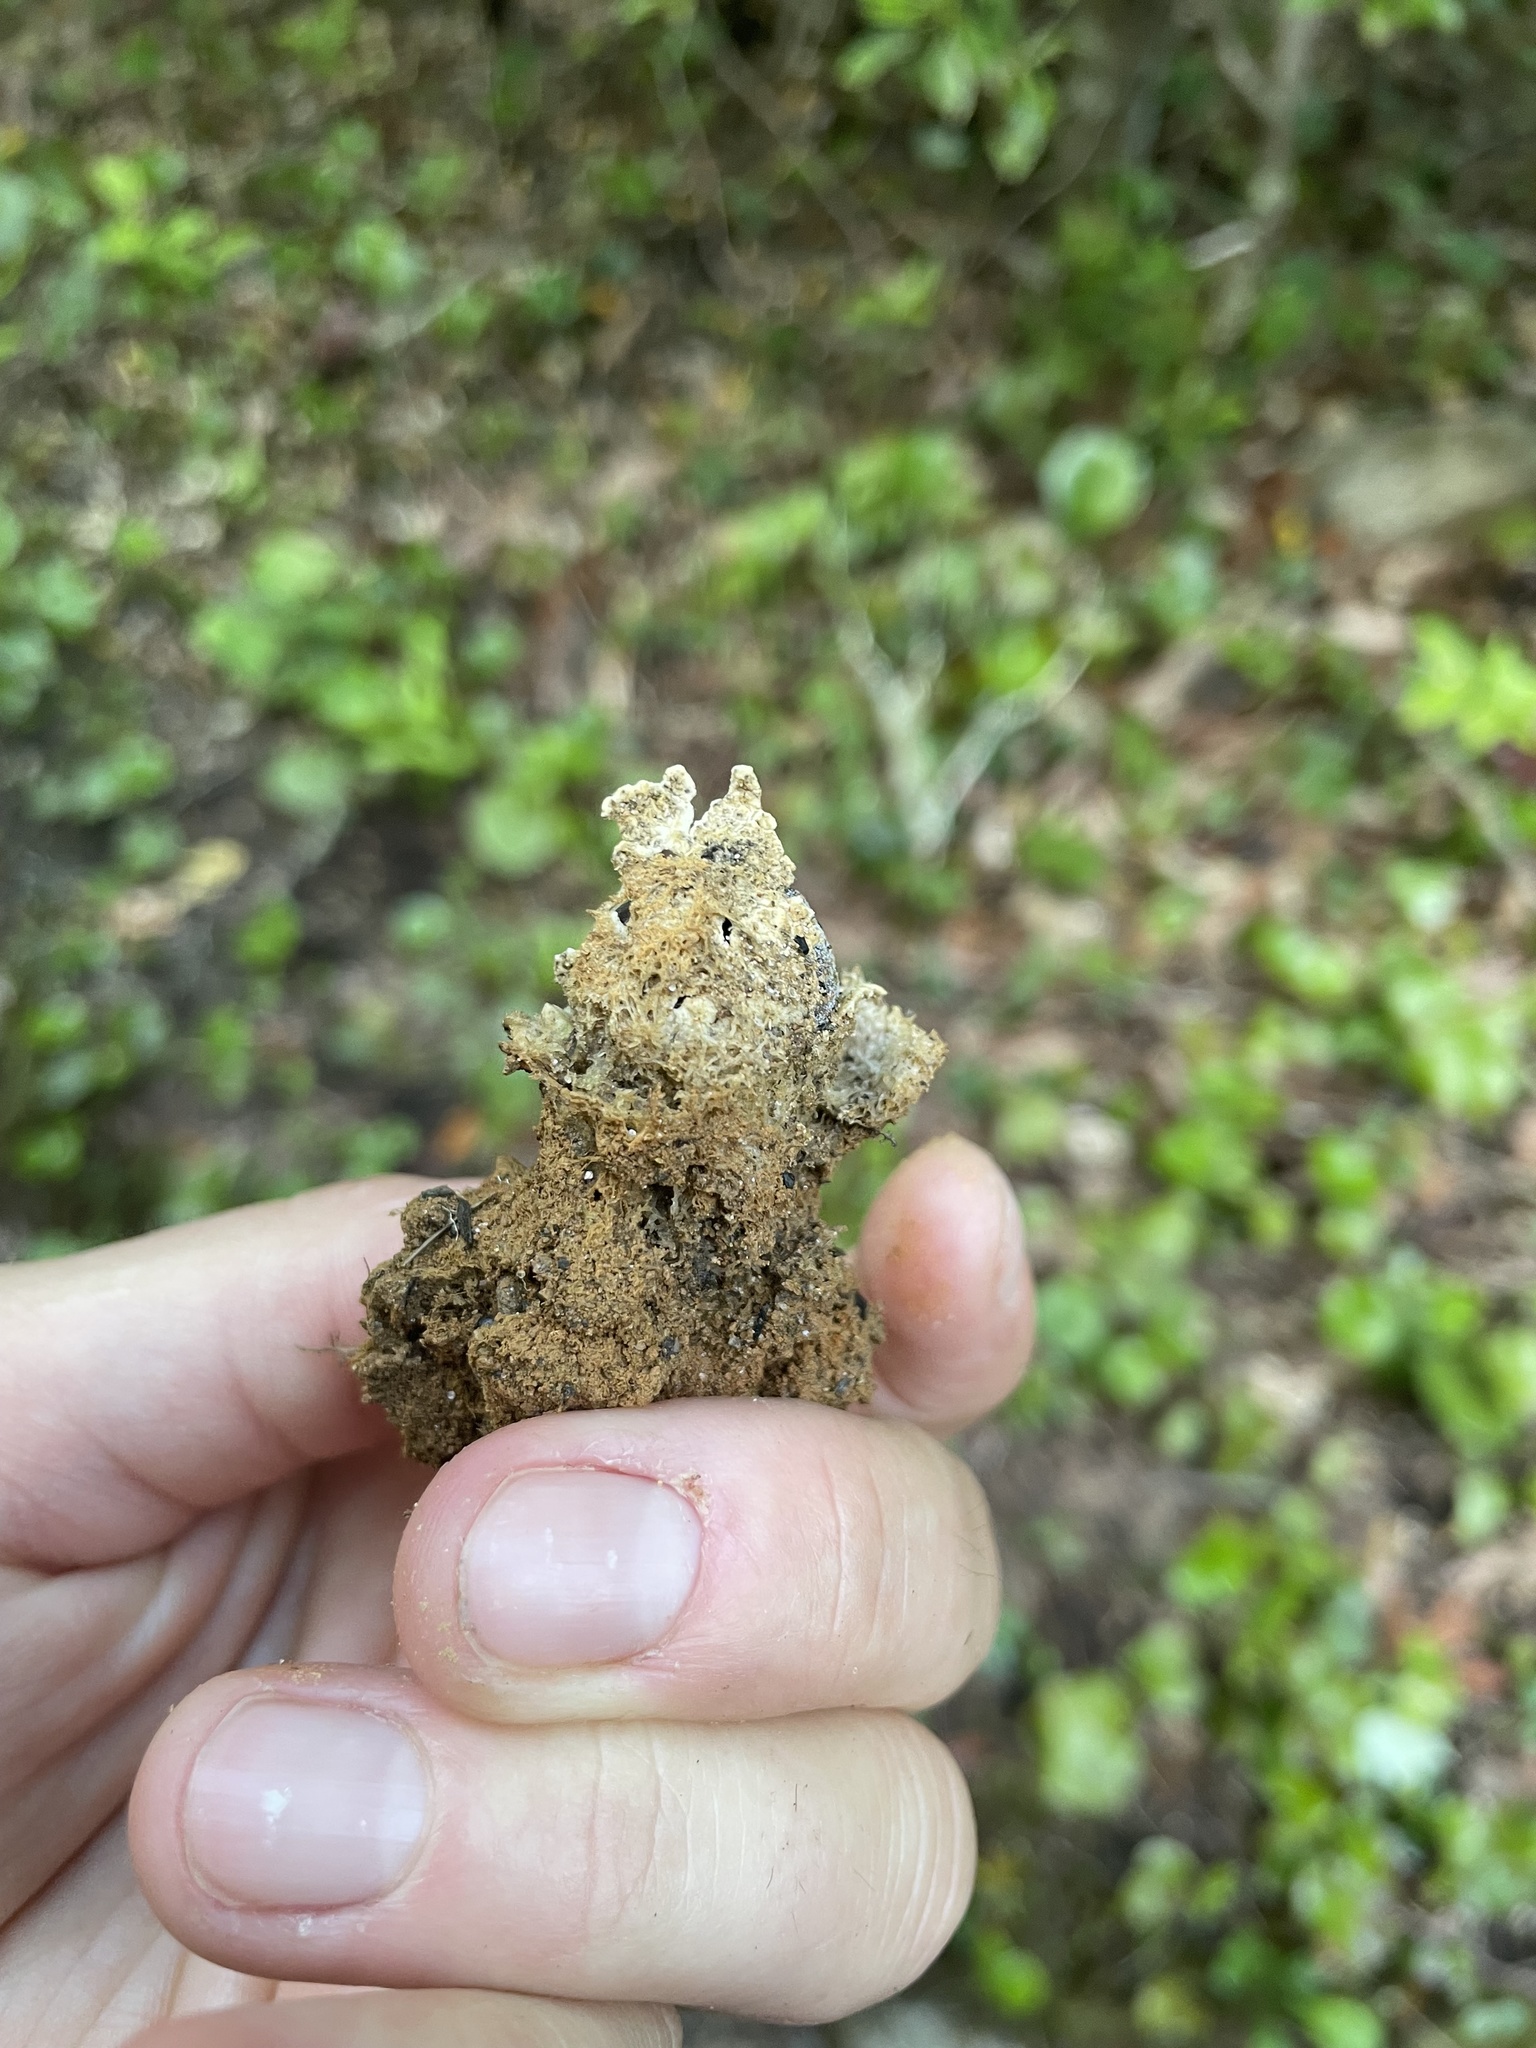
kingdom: Fungi
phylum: Basidiomycota
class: Agaricomycetes
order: Boletales
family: Calostomataceae
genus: Calostoma
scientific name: Calostoma lutescens
